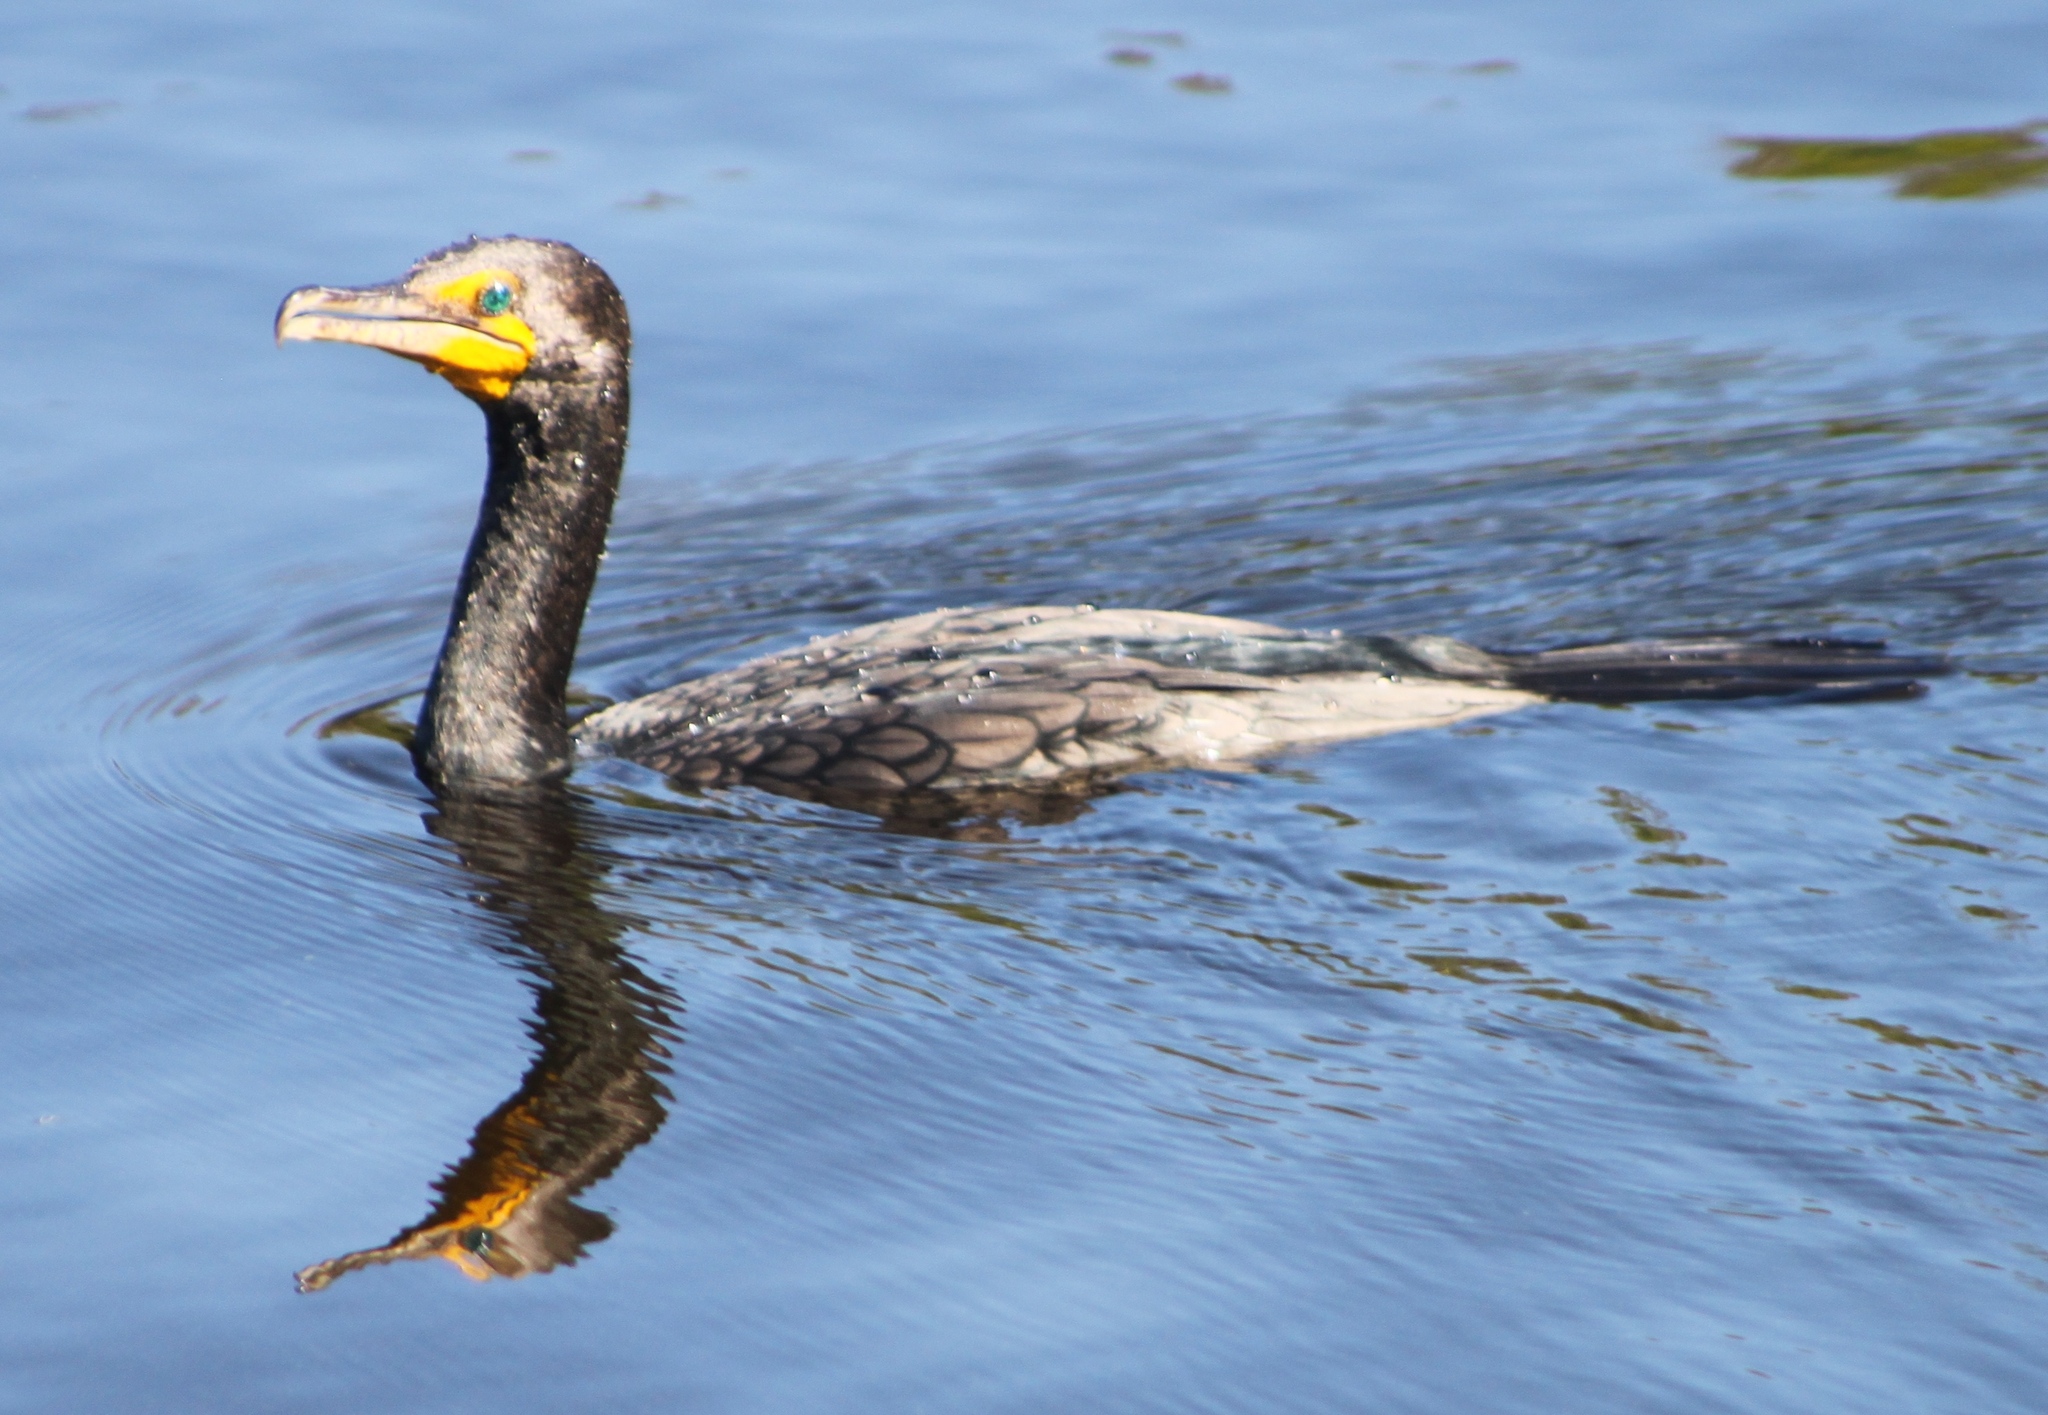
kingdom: Animalia
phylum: Chordata
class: Aves
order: Suliformes
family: Phalacrocoracidae
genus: Phalacrocorax
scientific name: Phalacrocorax auritus
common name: Double-crested cormorant
